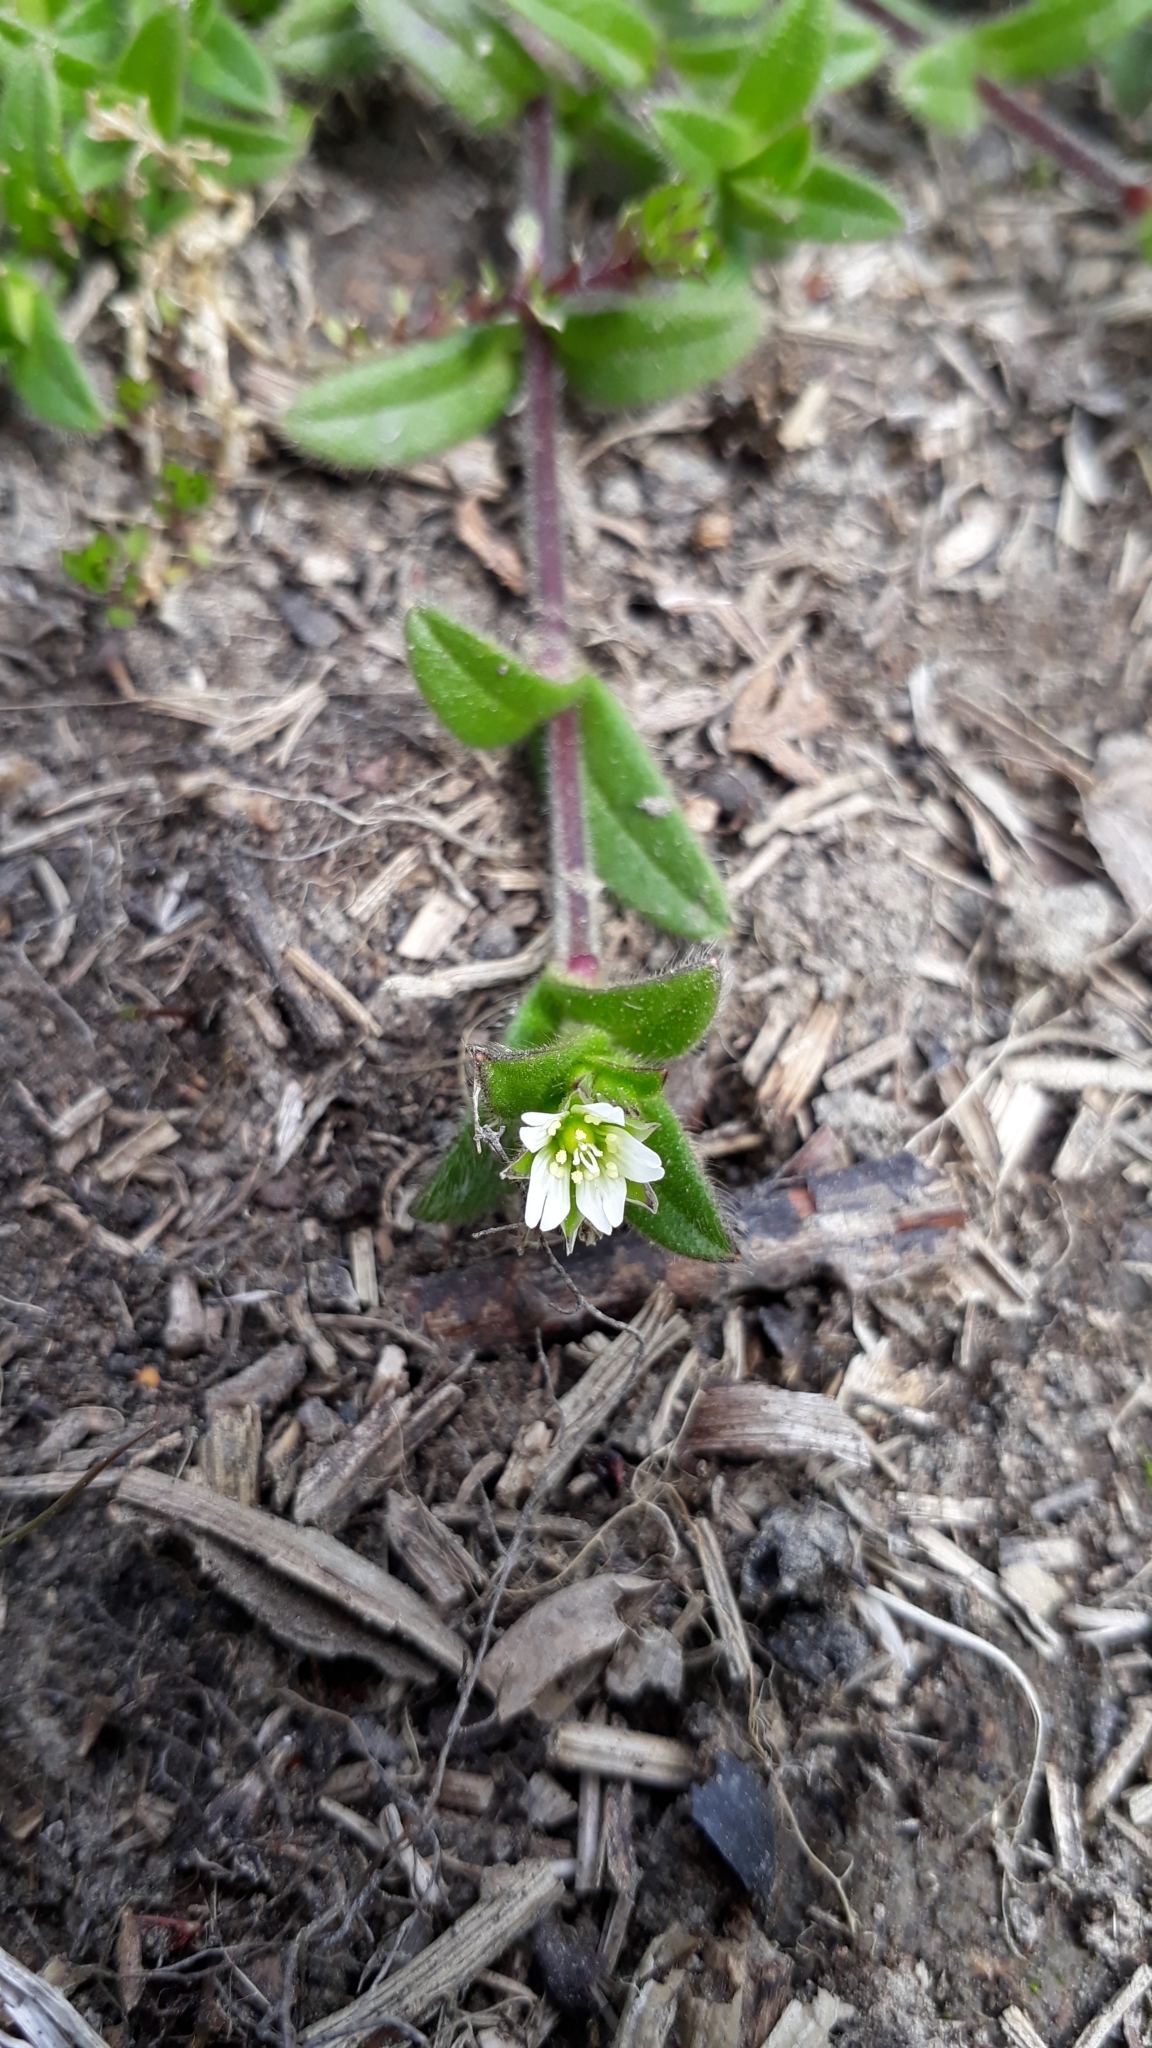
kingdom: Plantae
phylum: Tracheophyta
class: Magnoliopsida
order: Caryophyllales
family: Caryophyllaceae
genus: Cerastium
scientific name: Cerastium fontanum
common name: Common mouse-ear
